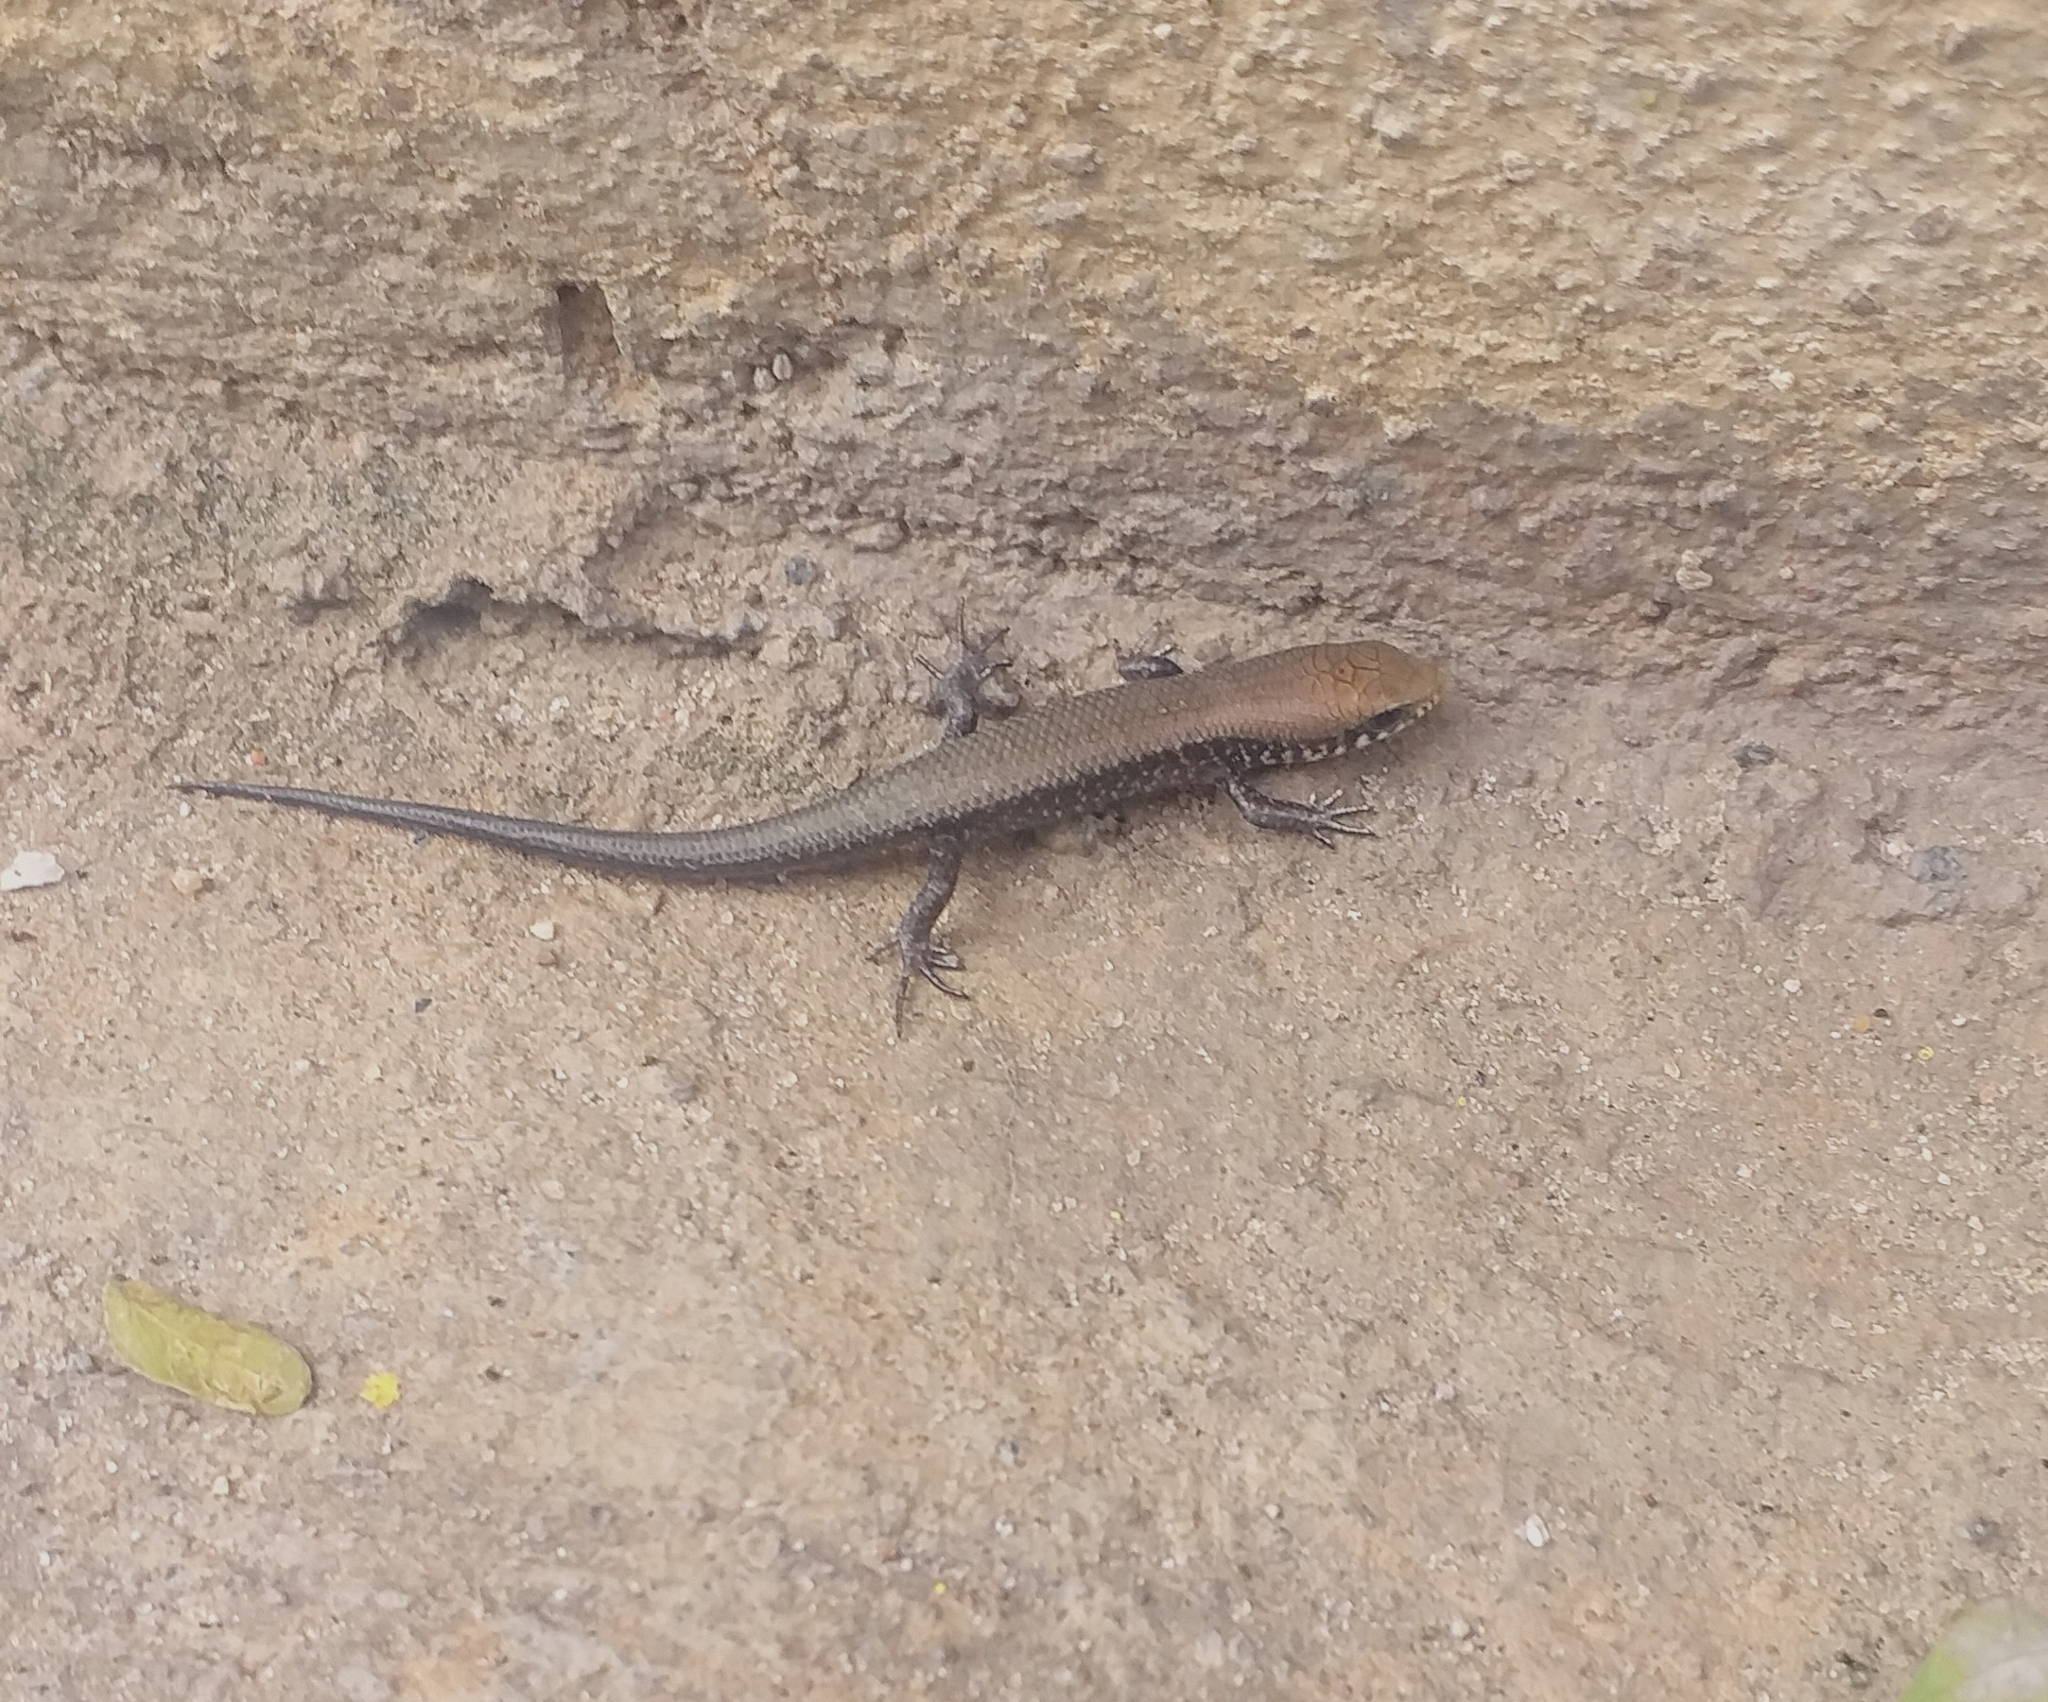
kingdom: Animalia
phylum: Chordata
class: Squamata
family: Scincidae
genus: Eutropis
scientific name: Eutropis macularia
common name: Bronze mabuya
